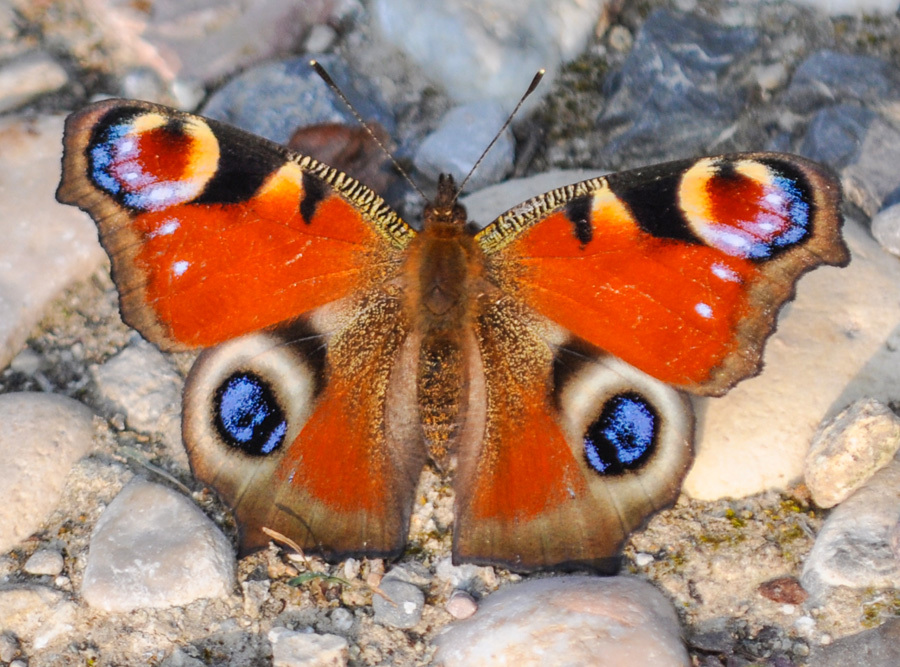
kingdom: Animalia
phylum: Arthropoda
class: Insecta
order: Lepidoptera
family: Nymphalidae
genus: Aglais
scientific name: Aglais io
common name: Peacock
